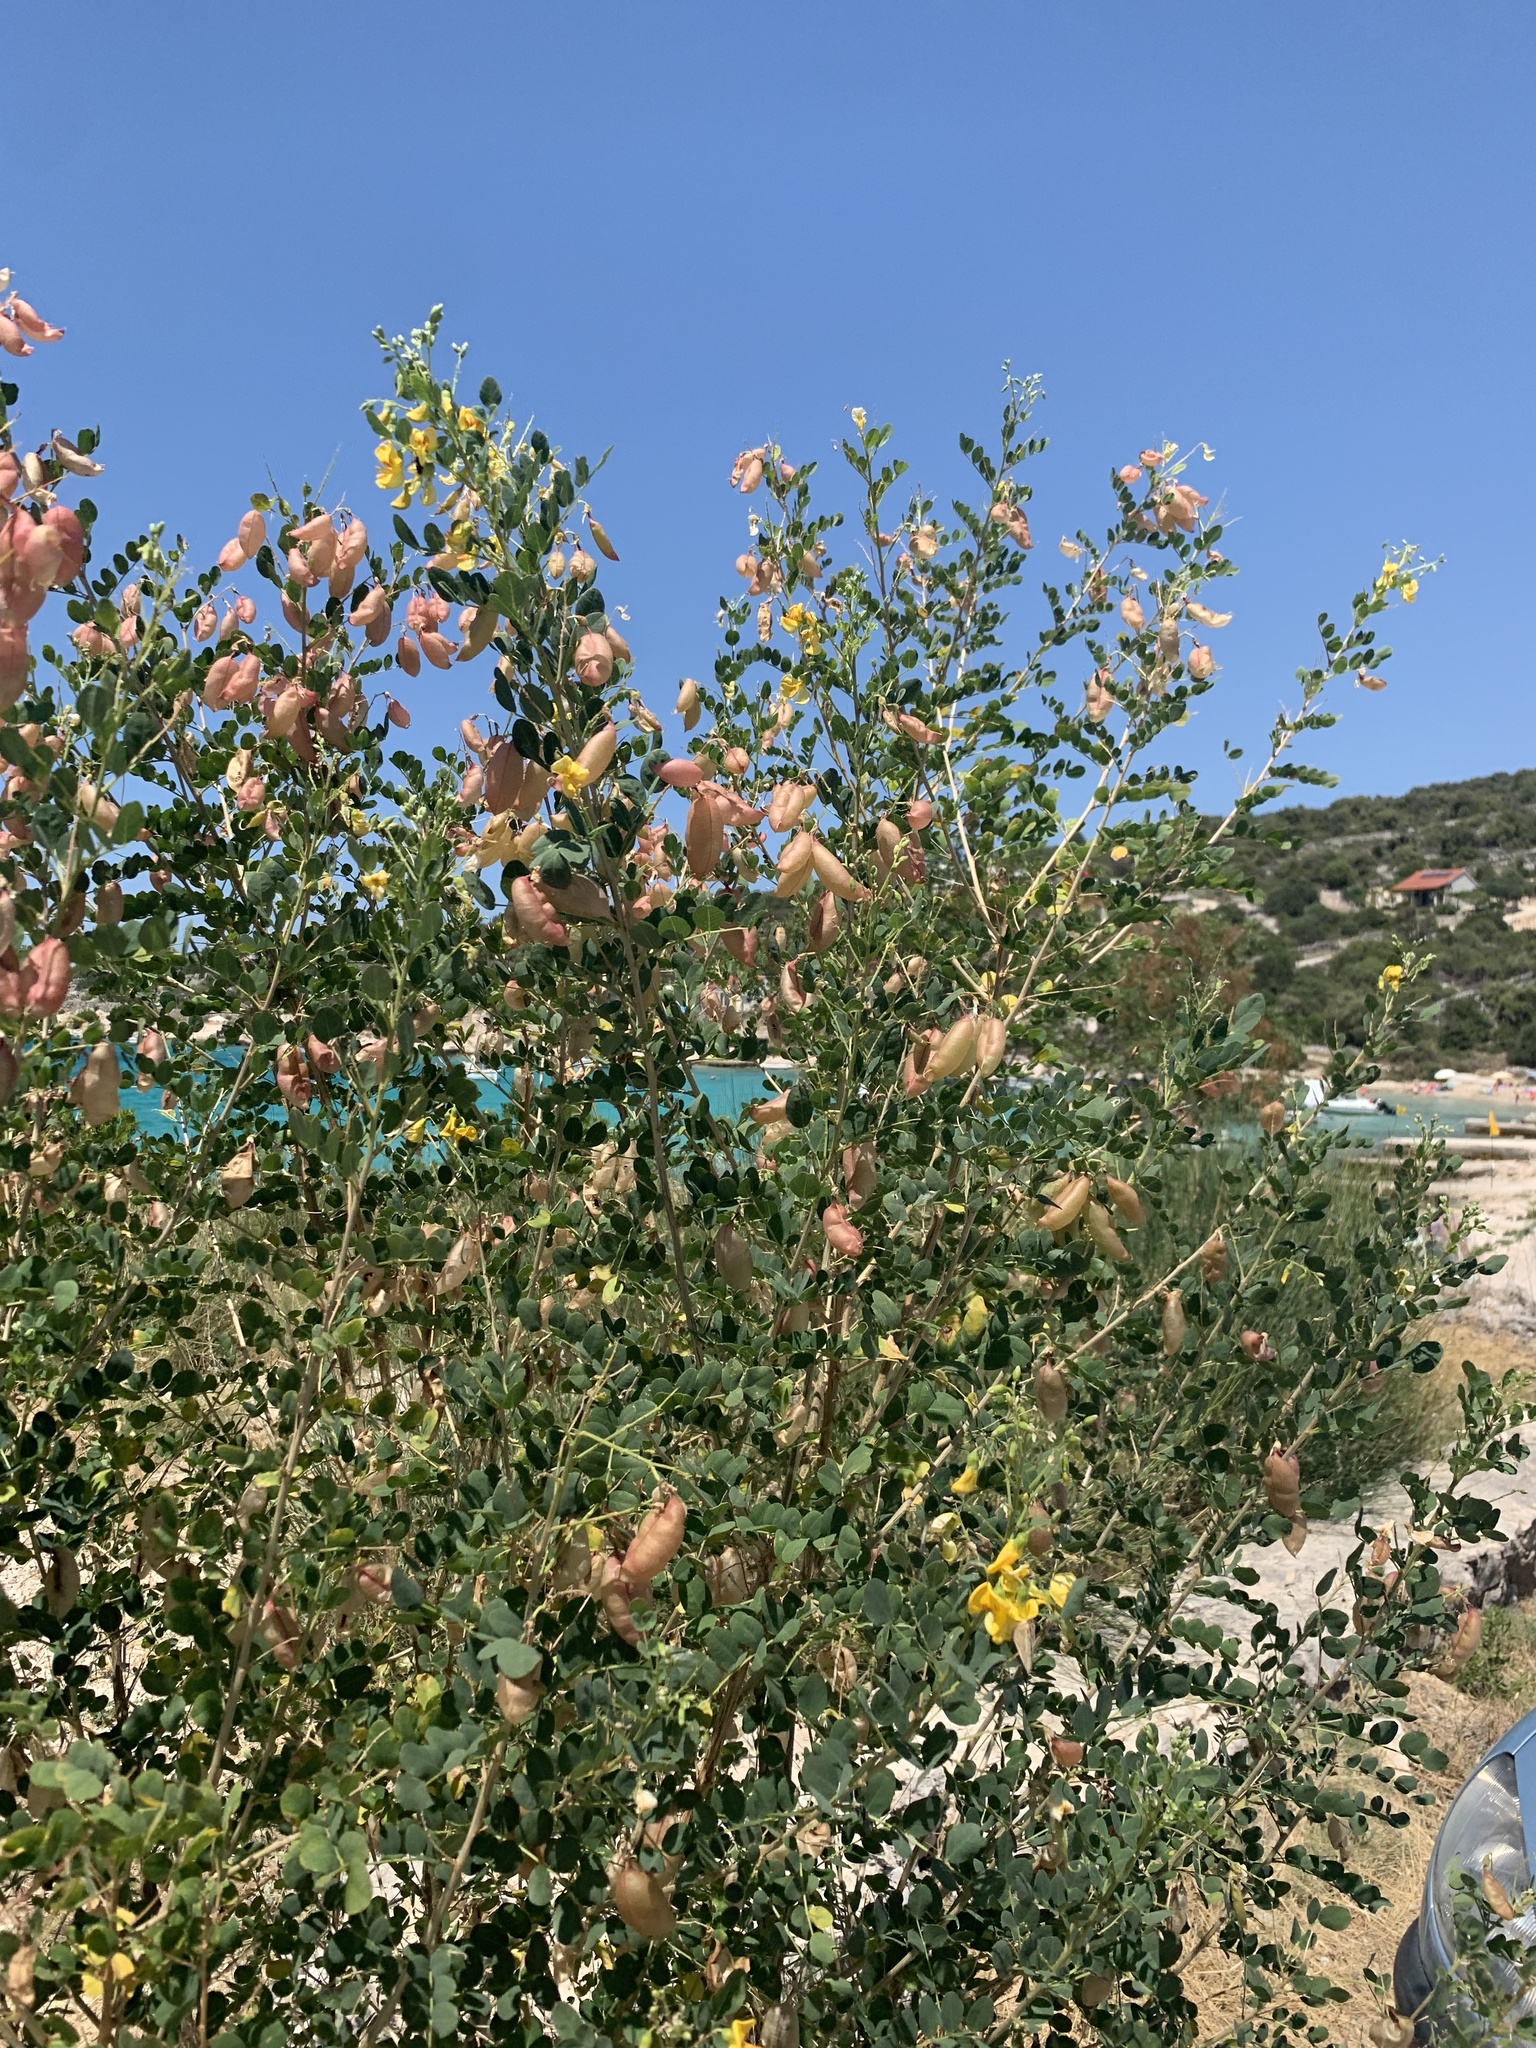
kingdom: Plantae
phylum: Tracheophyta
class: Magnoliopsida
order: Fabales
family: Fabaceae
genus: Colutea
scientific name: Colutea arborescens
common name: Bladder-senna
